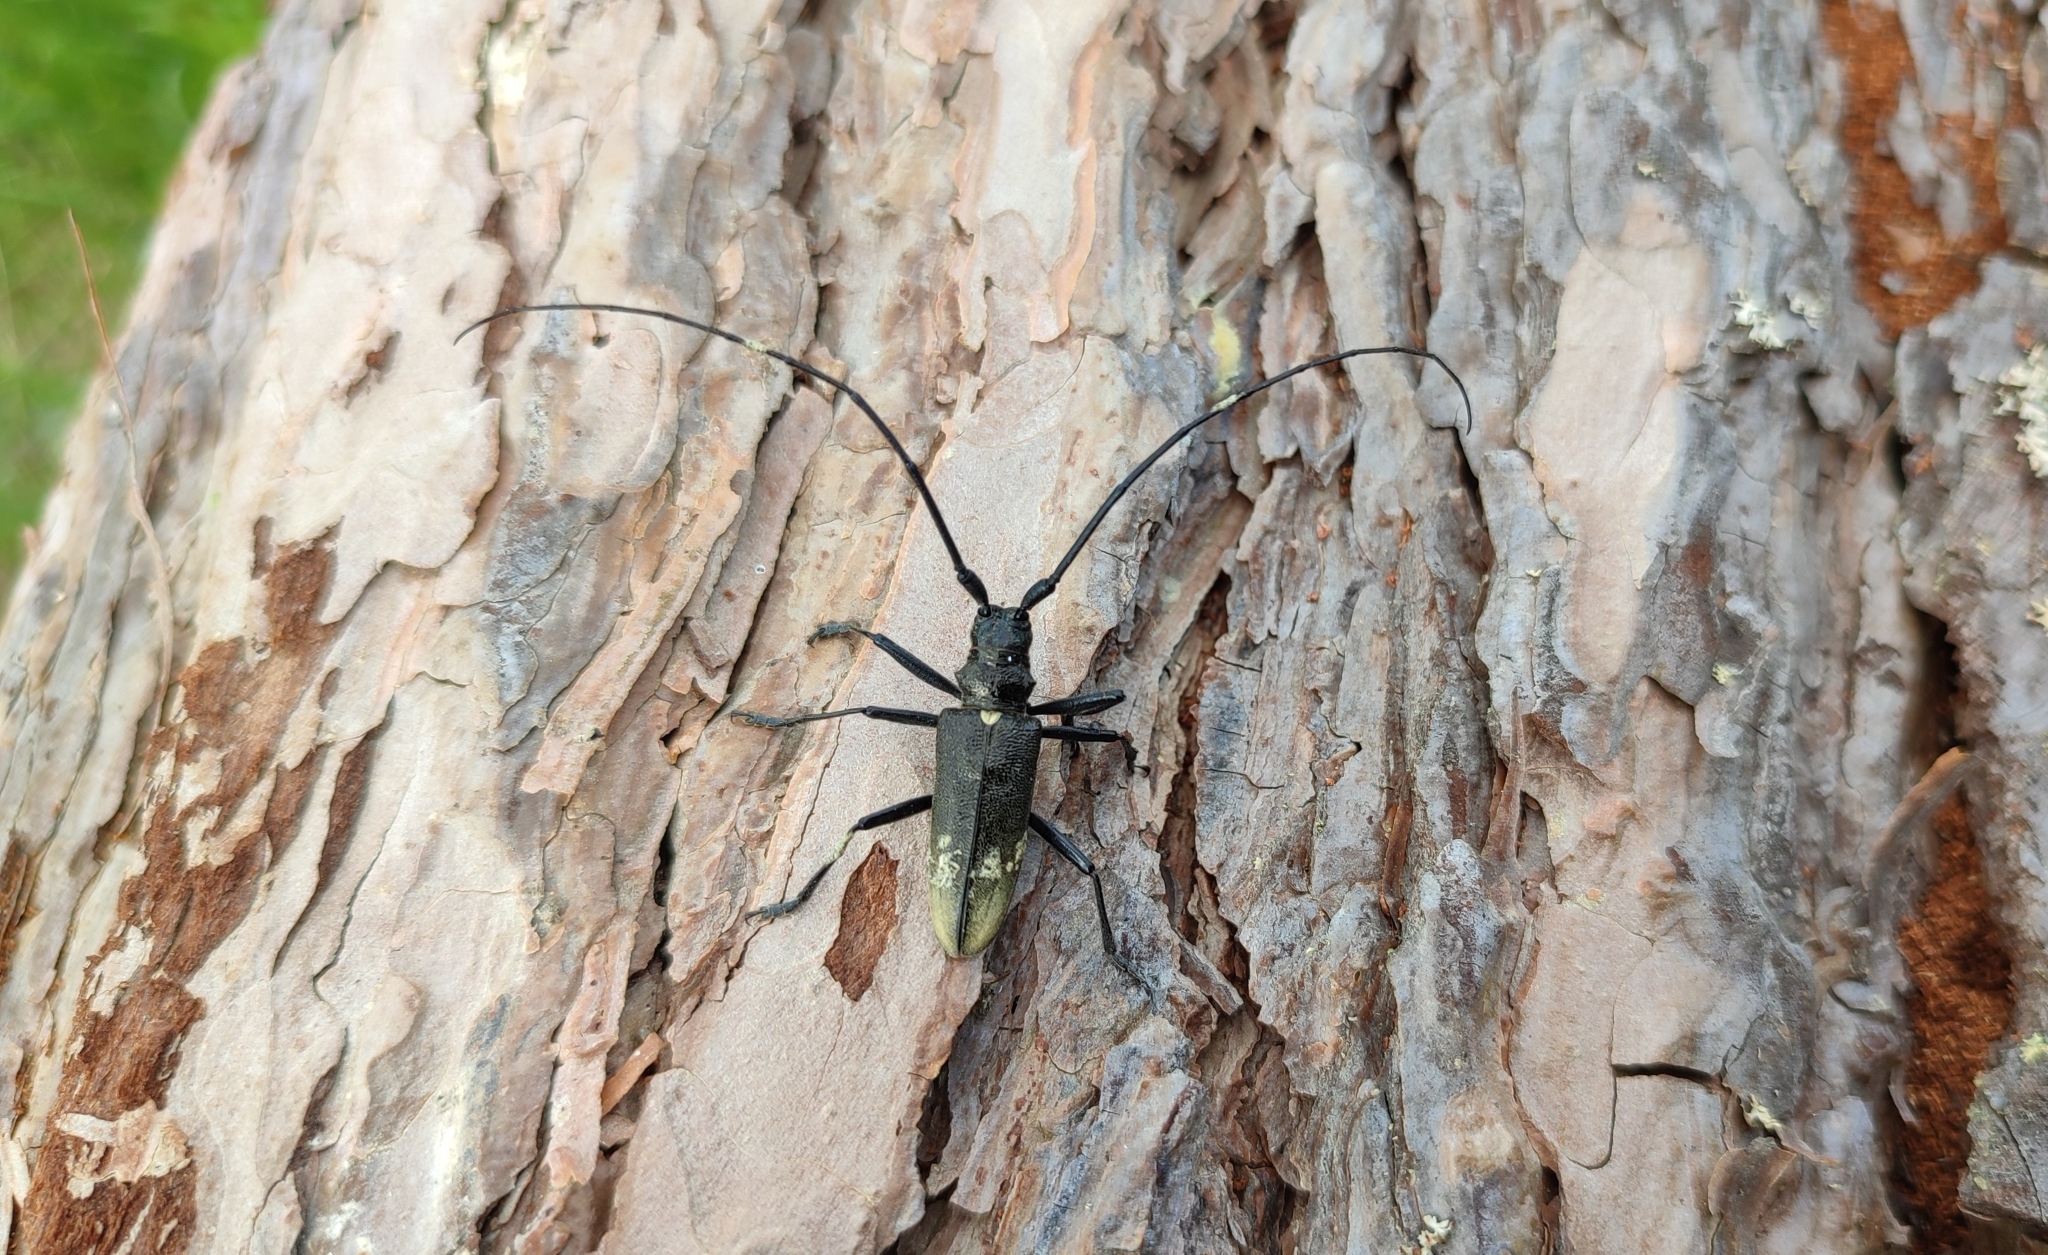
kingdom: Animalia
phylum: Arthropoda
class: Insecta
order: Coleoptera
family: Cerambycidae
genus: Monochamus
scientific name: Monochamus urussovii
